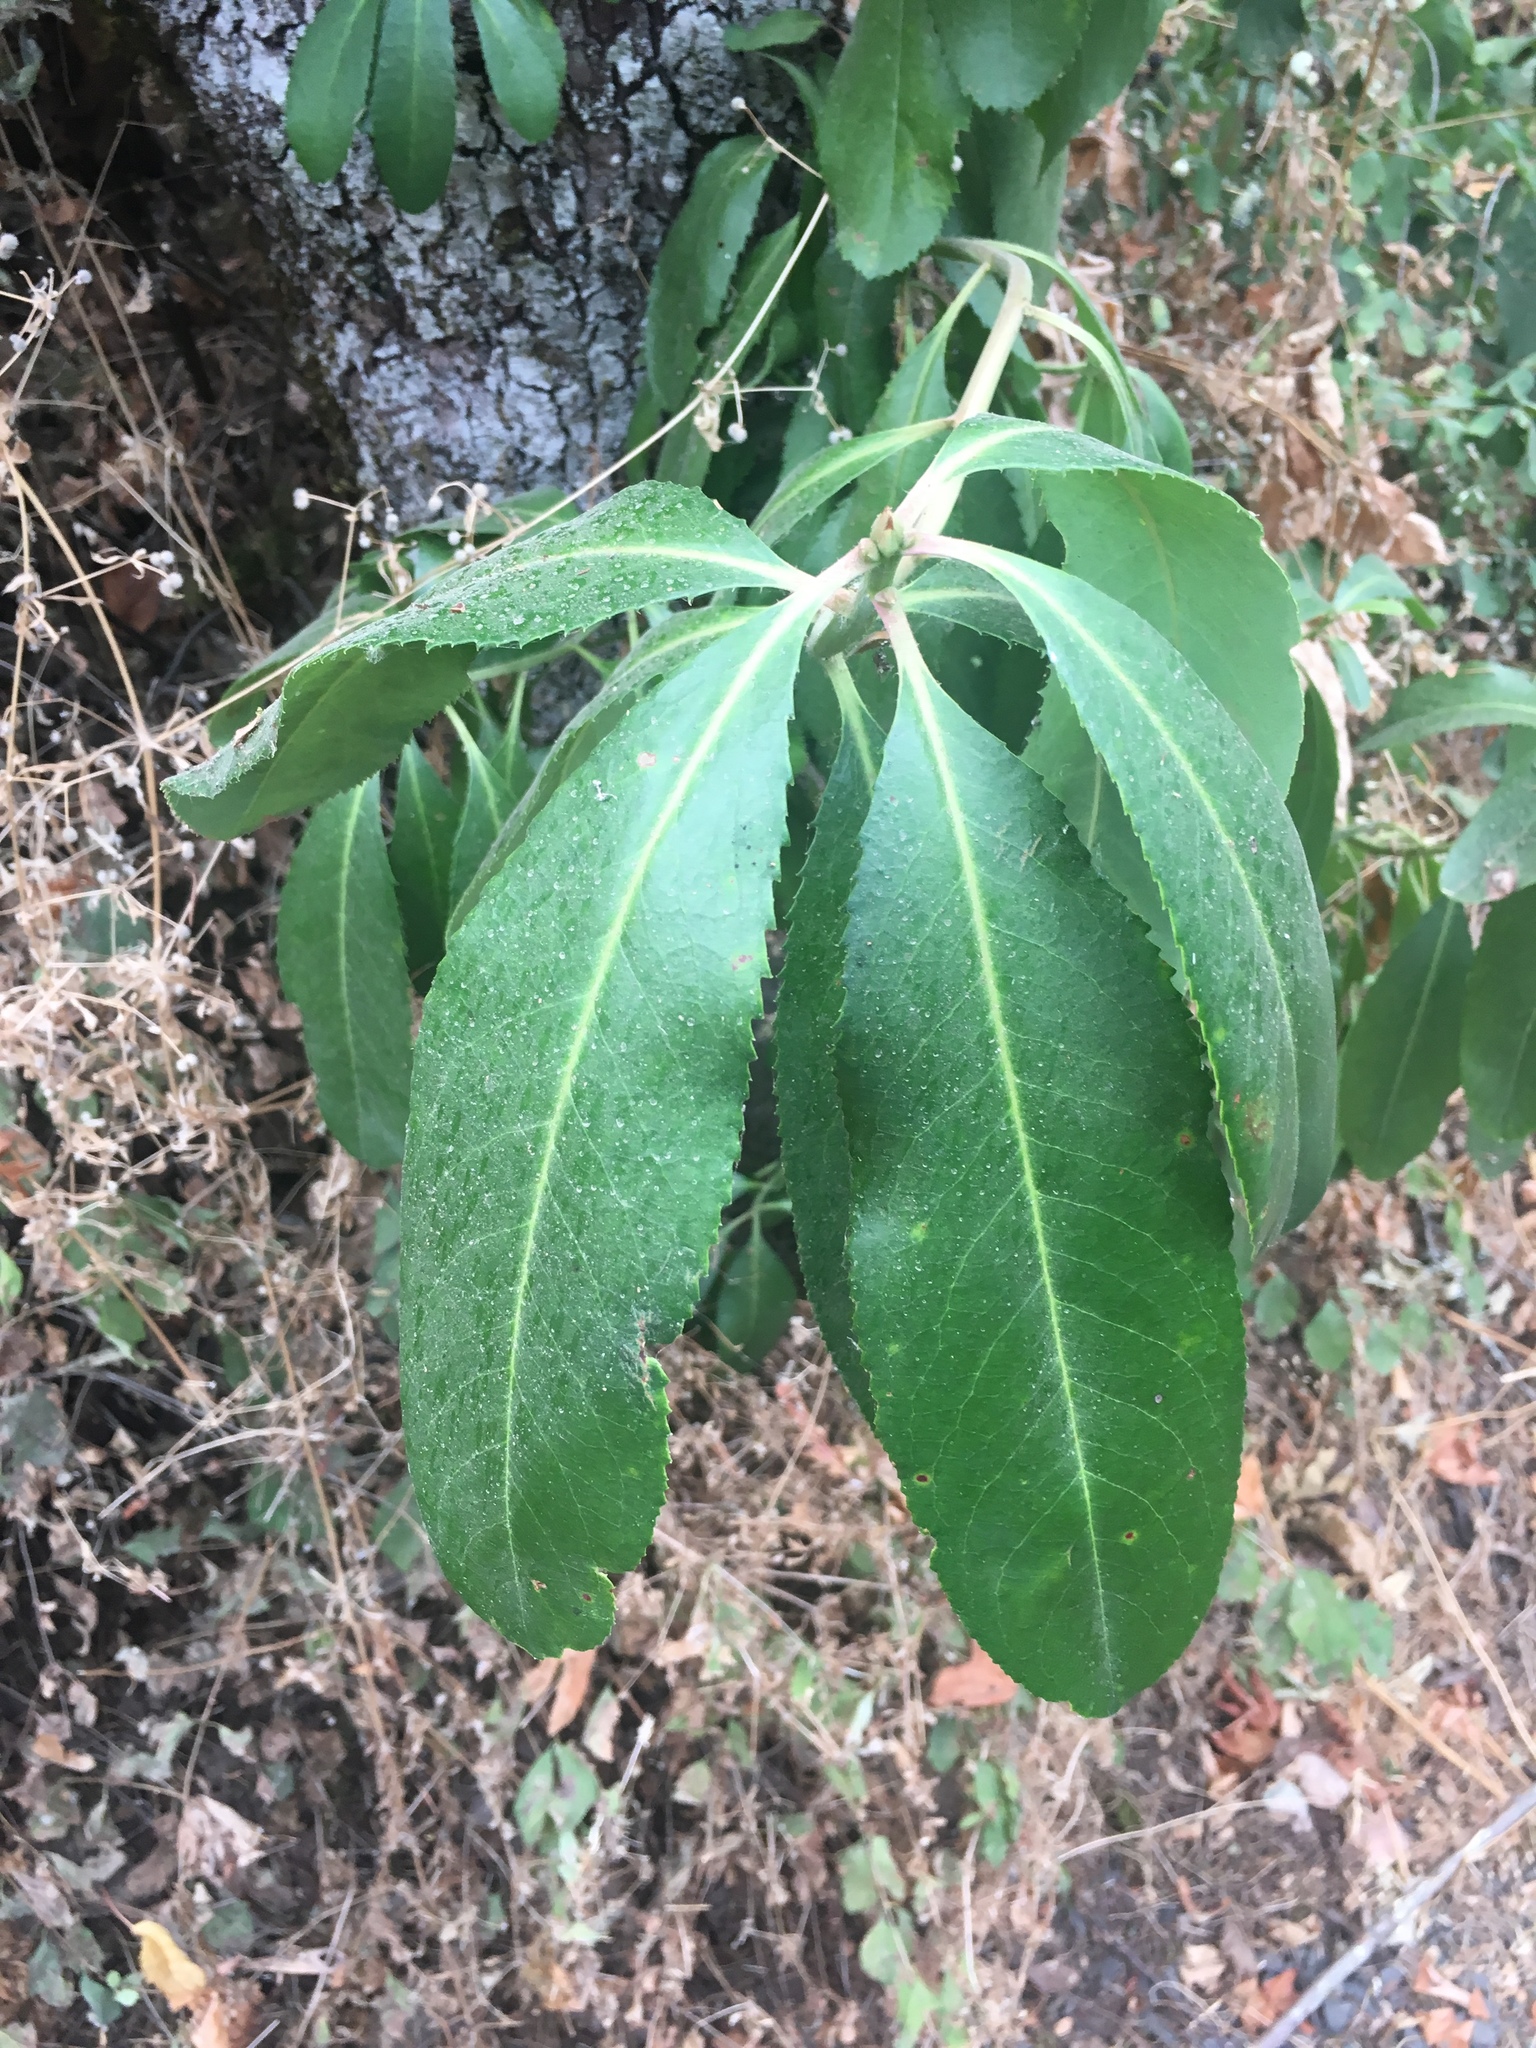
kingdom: Plantae
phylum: Tracheophyta
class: Magnoliopsida
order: Ericales
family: Ericaceae
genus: Arbutus
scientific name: Arbutus menziesii
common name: Pacific madrone
